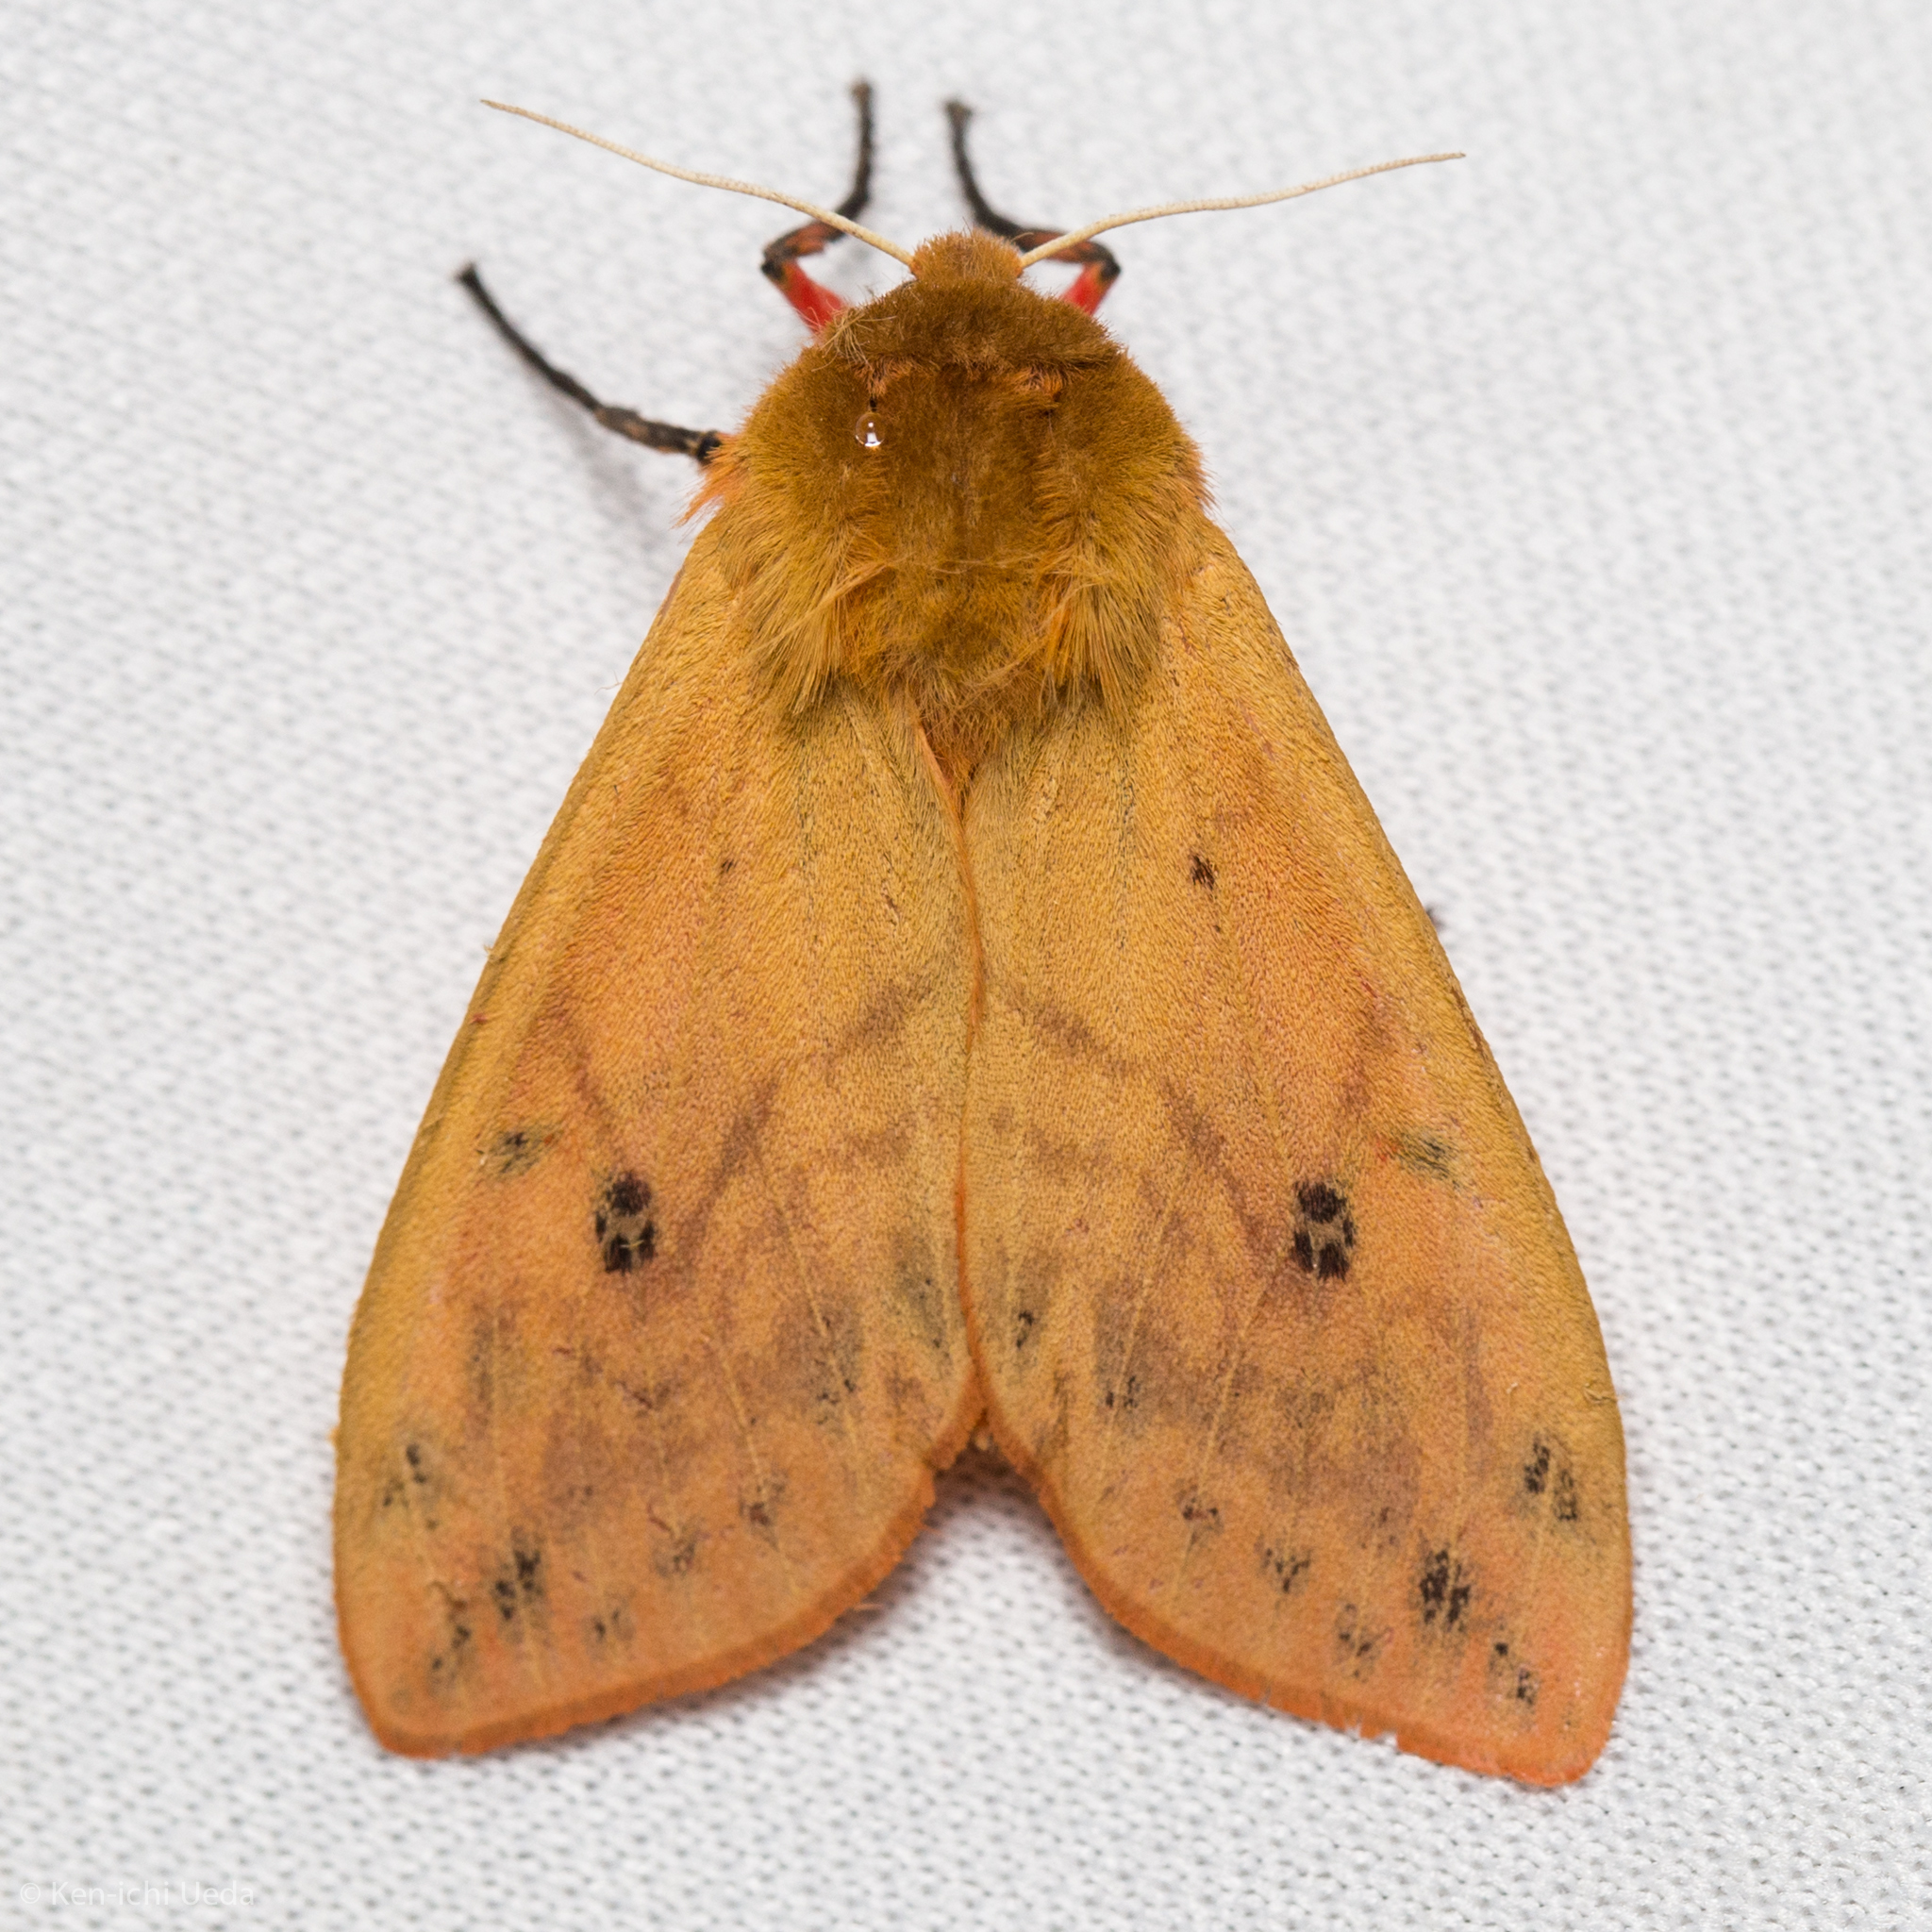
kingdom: Animalia
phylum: Arthropoda
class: Insecta
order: Lepidoptera
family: Erebidae
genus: Pyrrharctia
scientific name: Pyrrharctia isabella
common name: Isabella tiger moth
